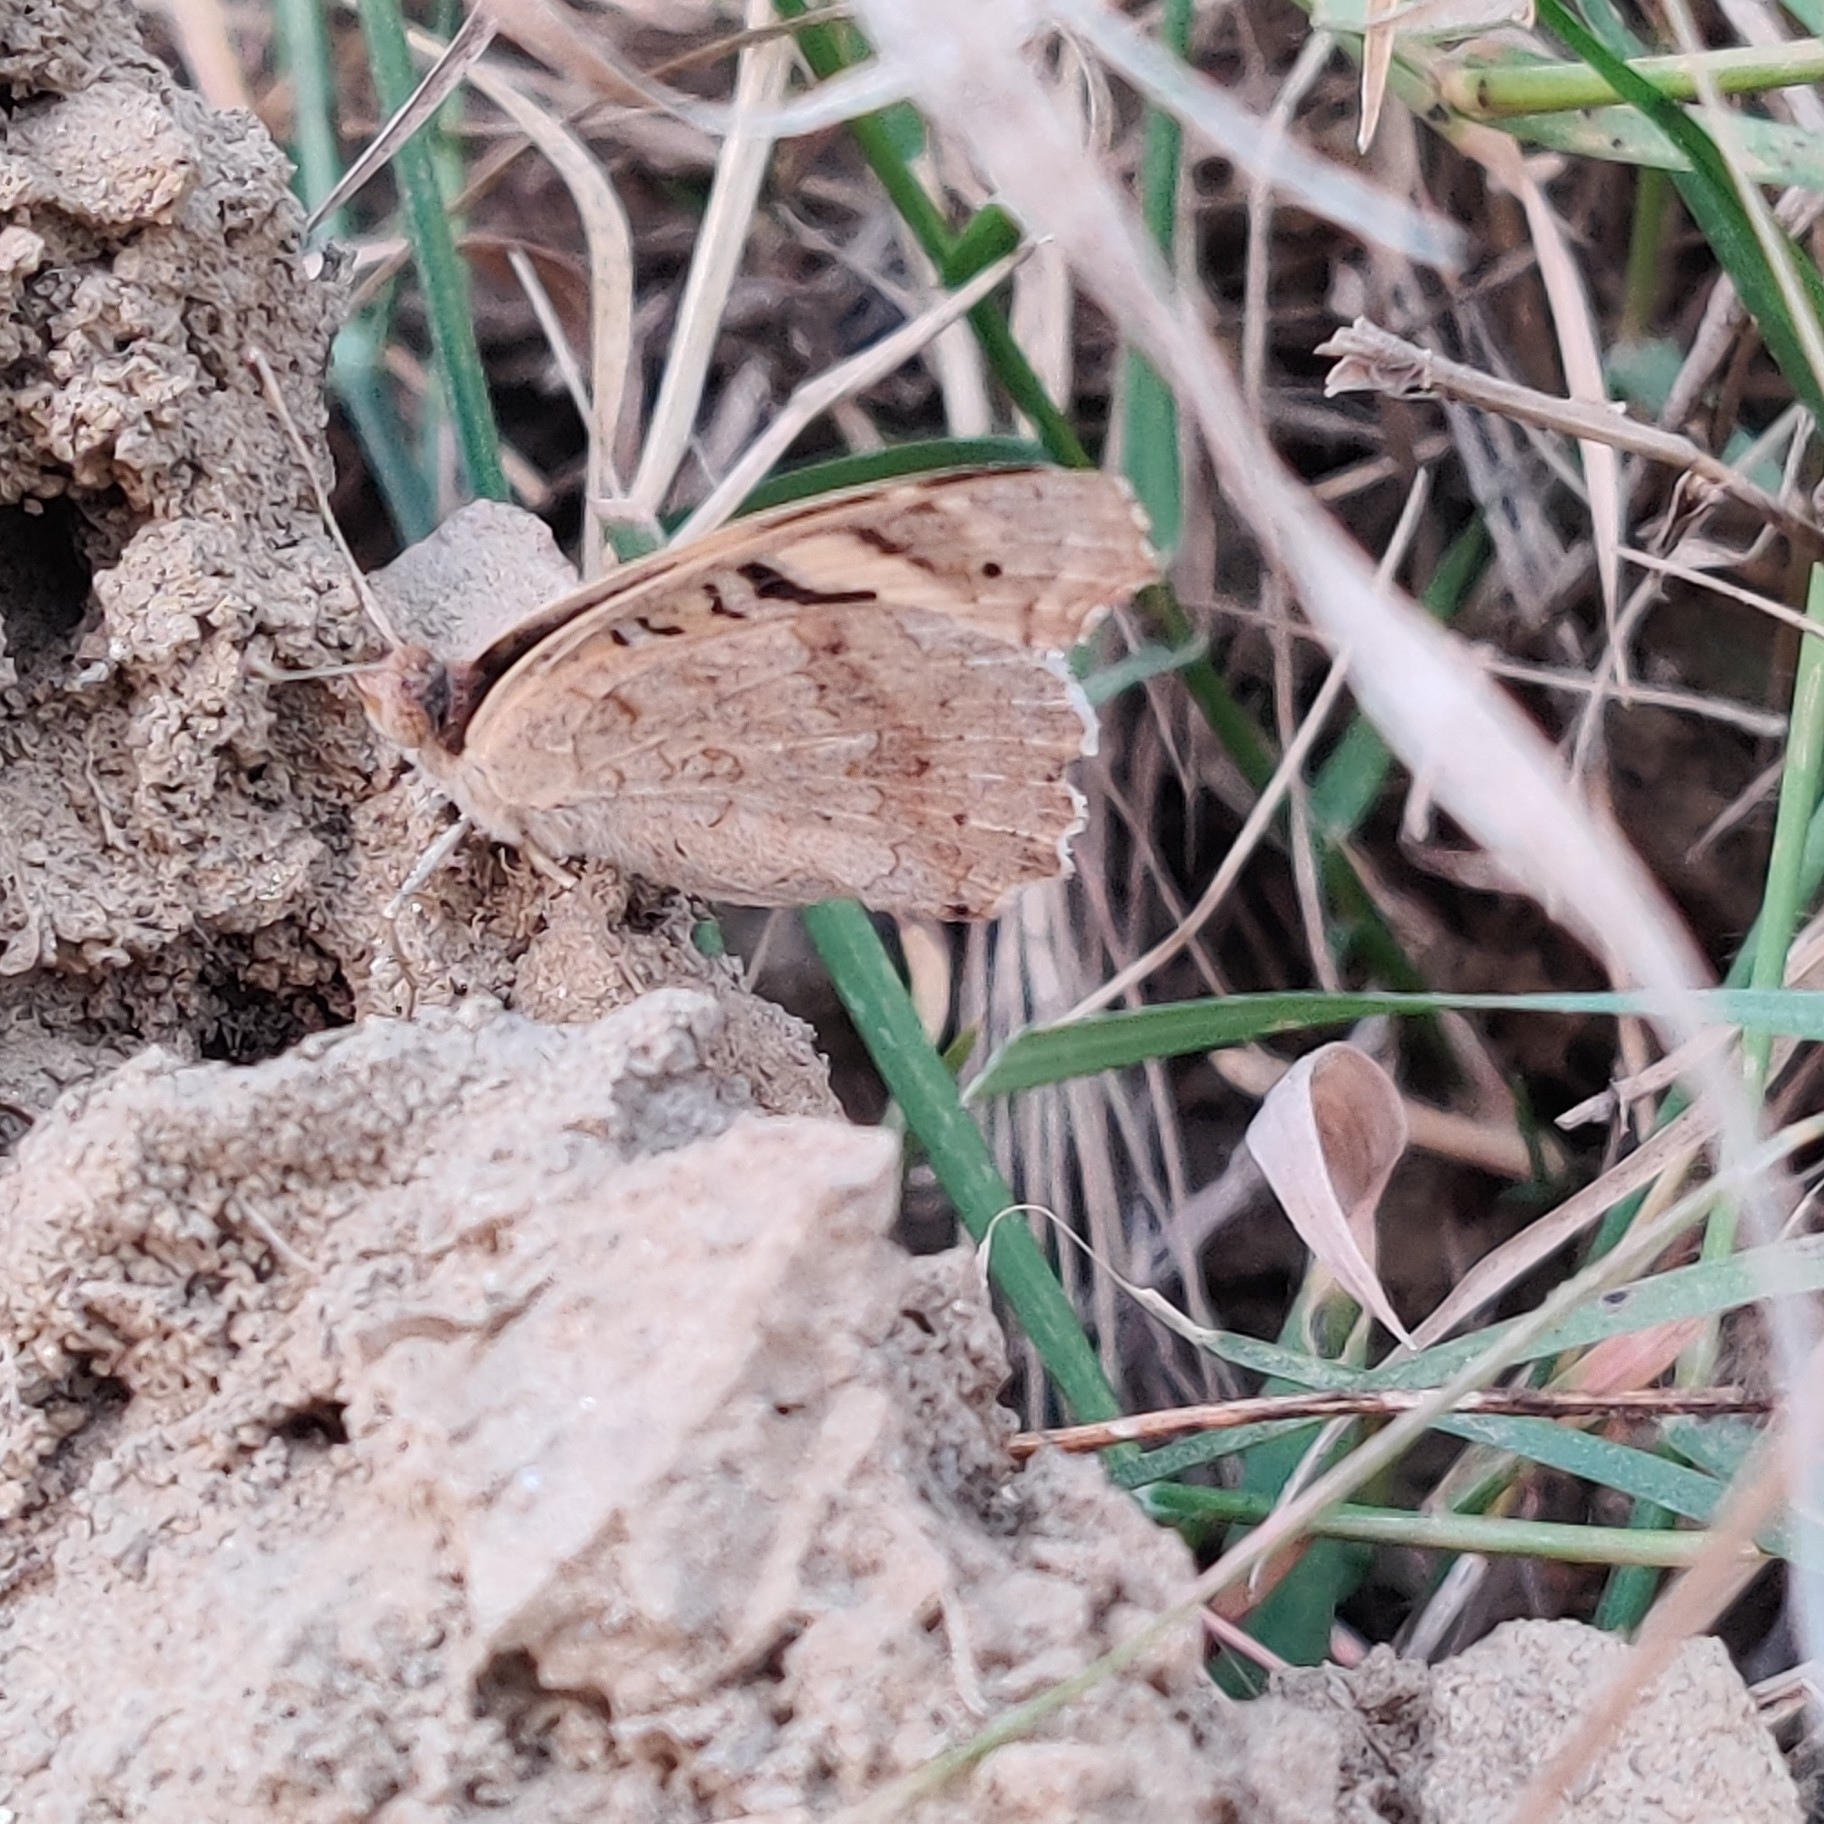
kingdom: Animalia
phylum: Arthropoda
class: Insecta
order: Lepidoptera
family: Nymphalidae
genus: Junonia
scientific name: Junonia orithya
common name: Blue pansy
